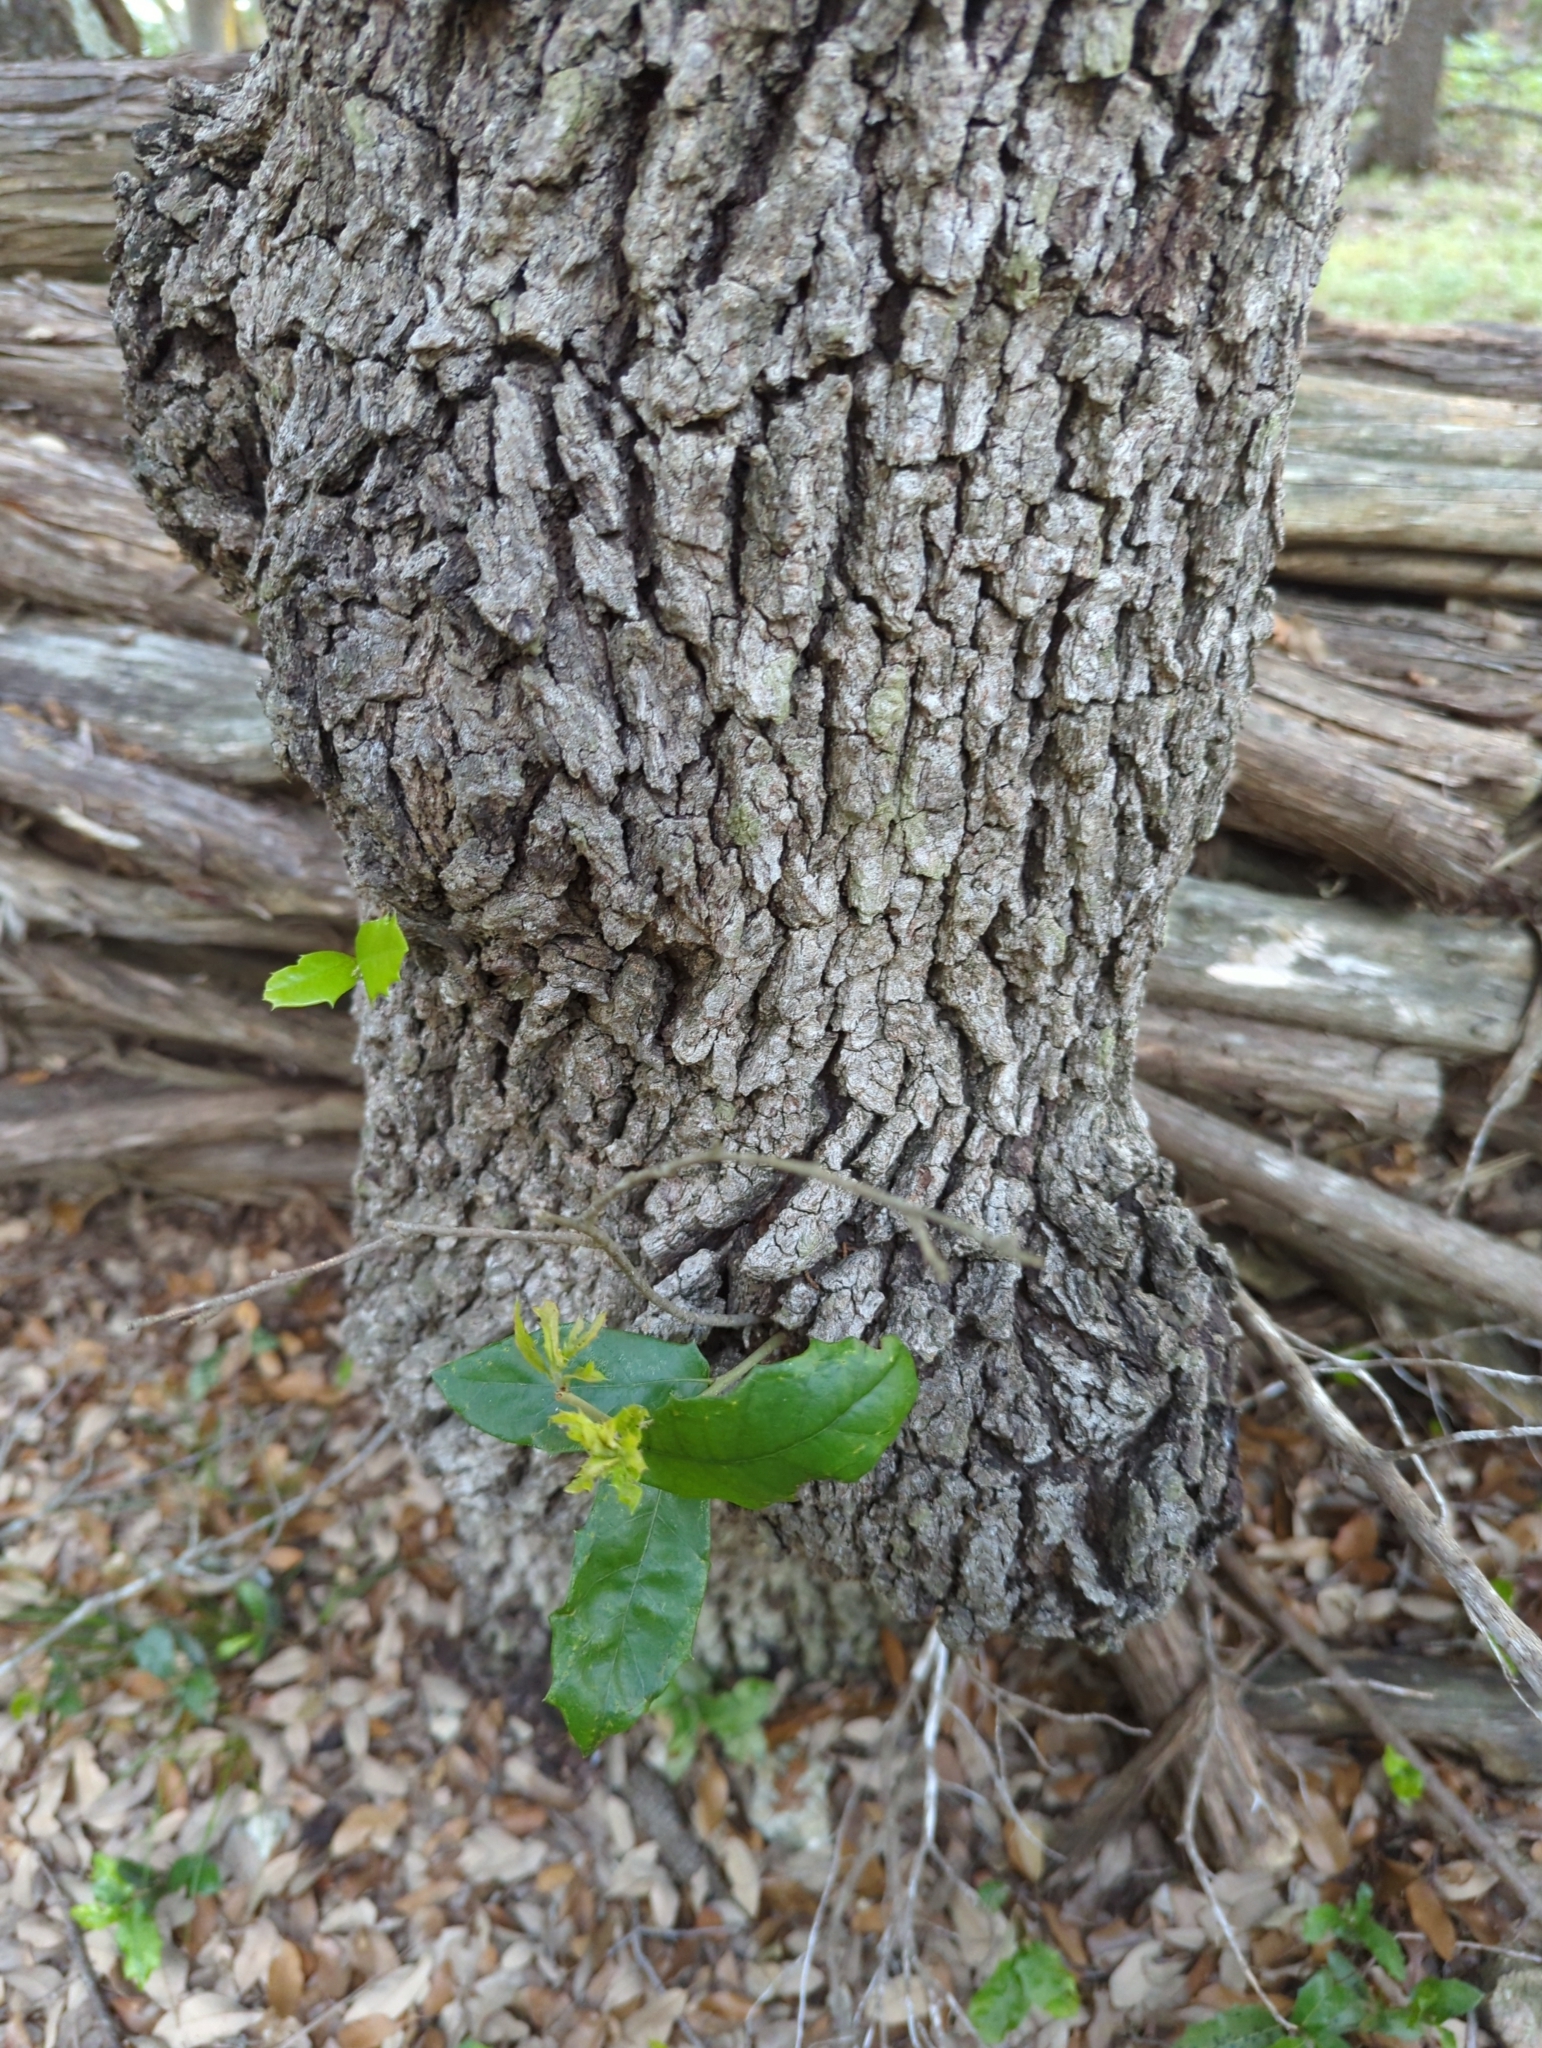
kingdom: Plantae
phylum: Tracheophyta
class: Magnoliopsida
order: Fagales
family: Fagaceae
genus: Quercus
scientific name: Quercus fusiformis
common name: Texas live oak
